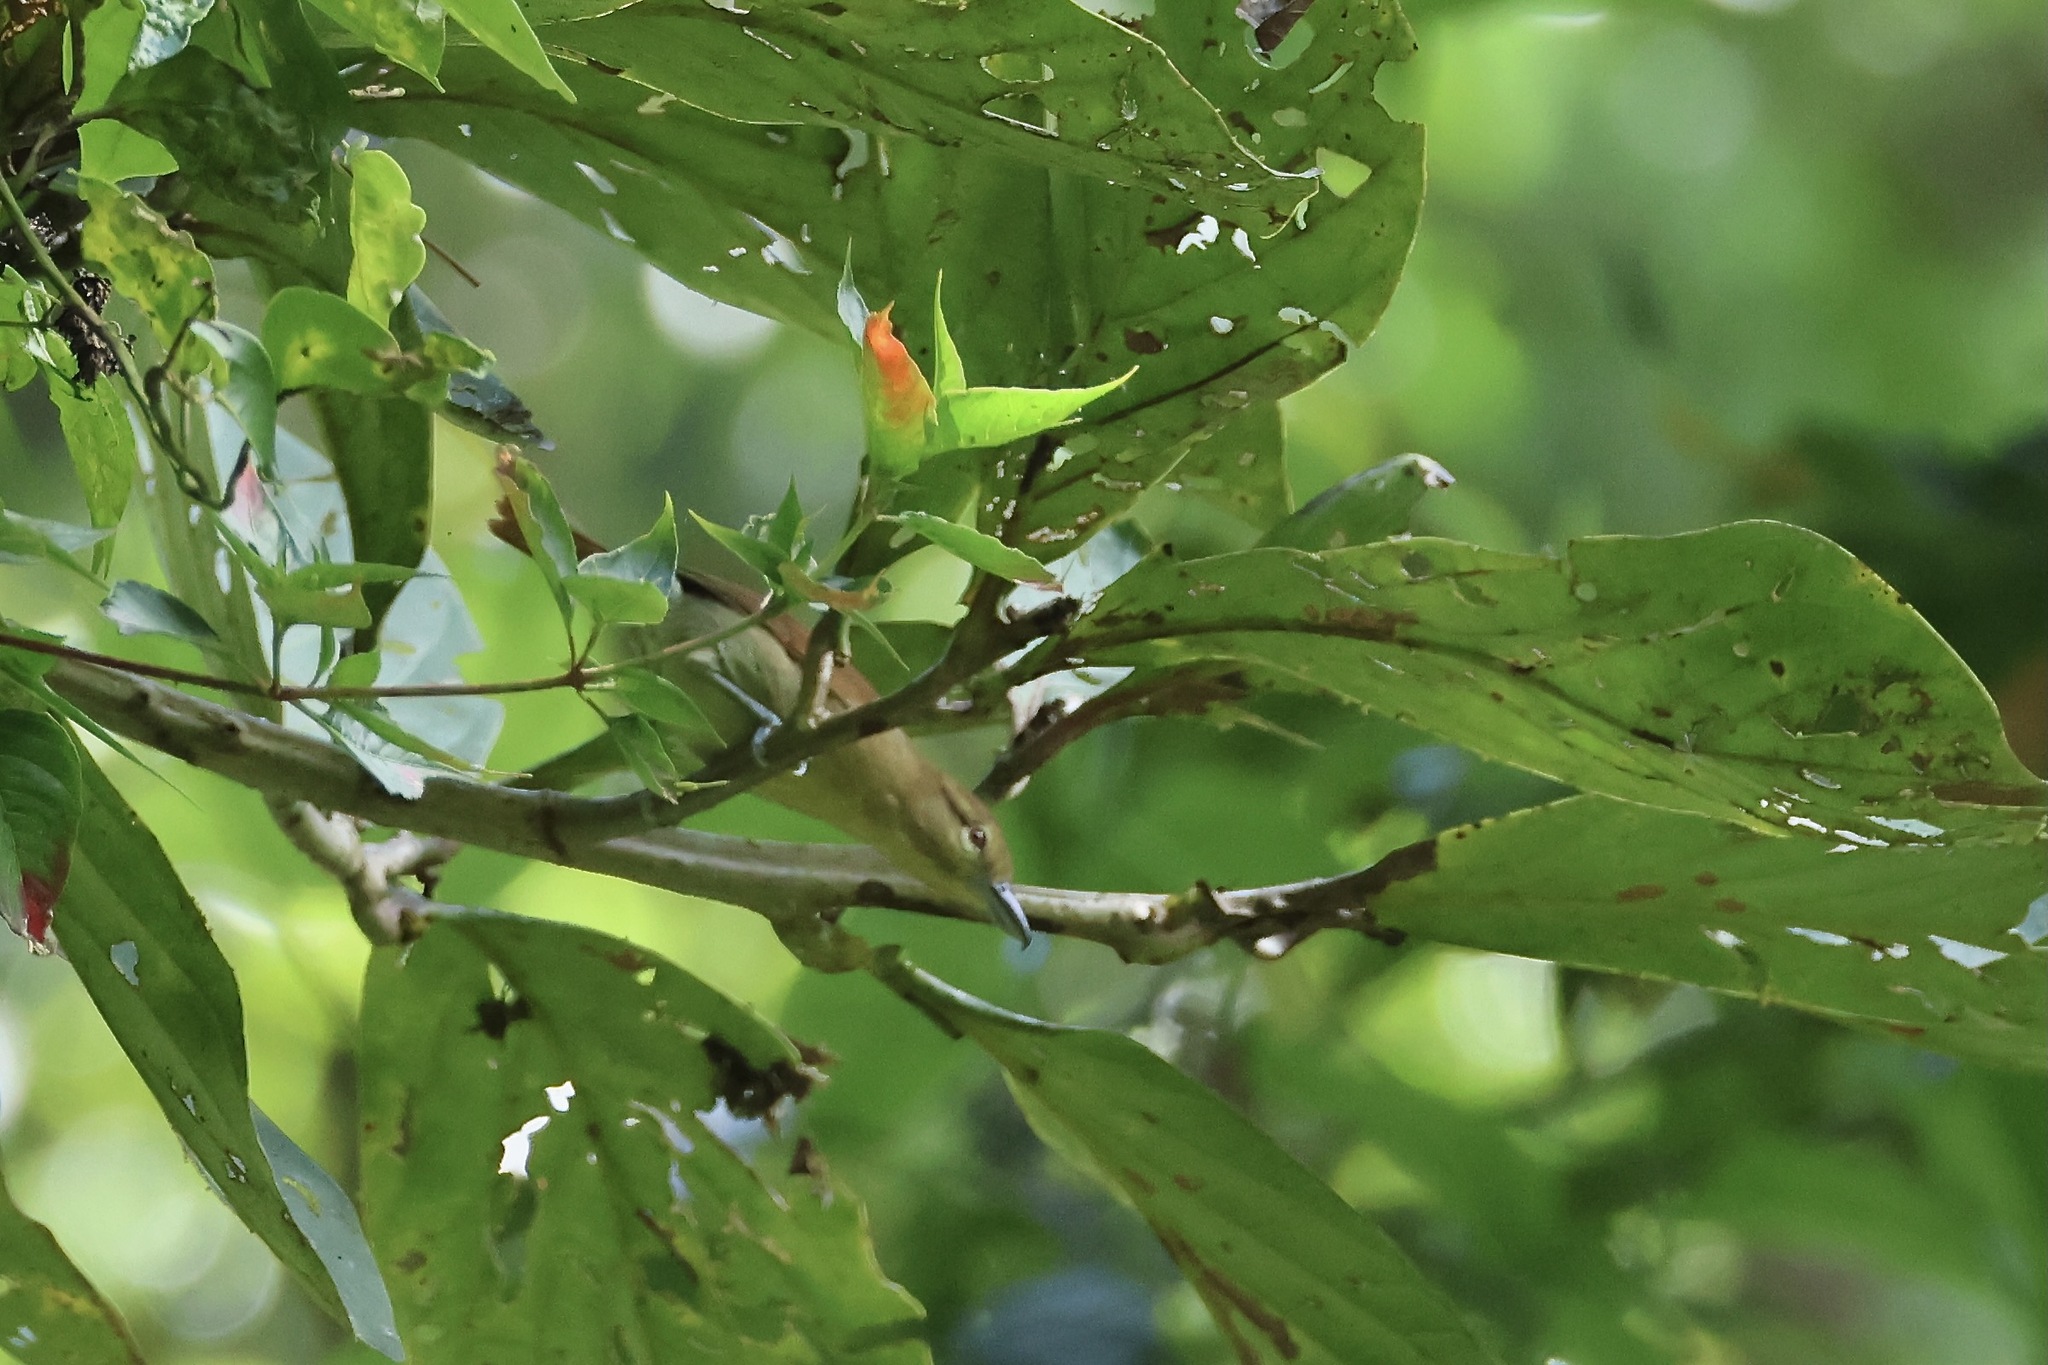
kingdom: Animalia
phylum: Chordata
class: Aves
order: Passeriformes
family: Thamnophilidae
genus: Thamnistes
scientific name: Thamnistes anabatinus
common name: Russet antshrike
